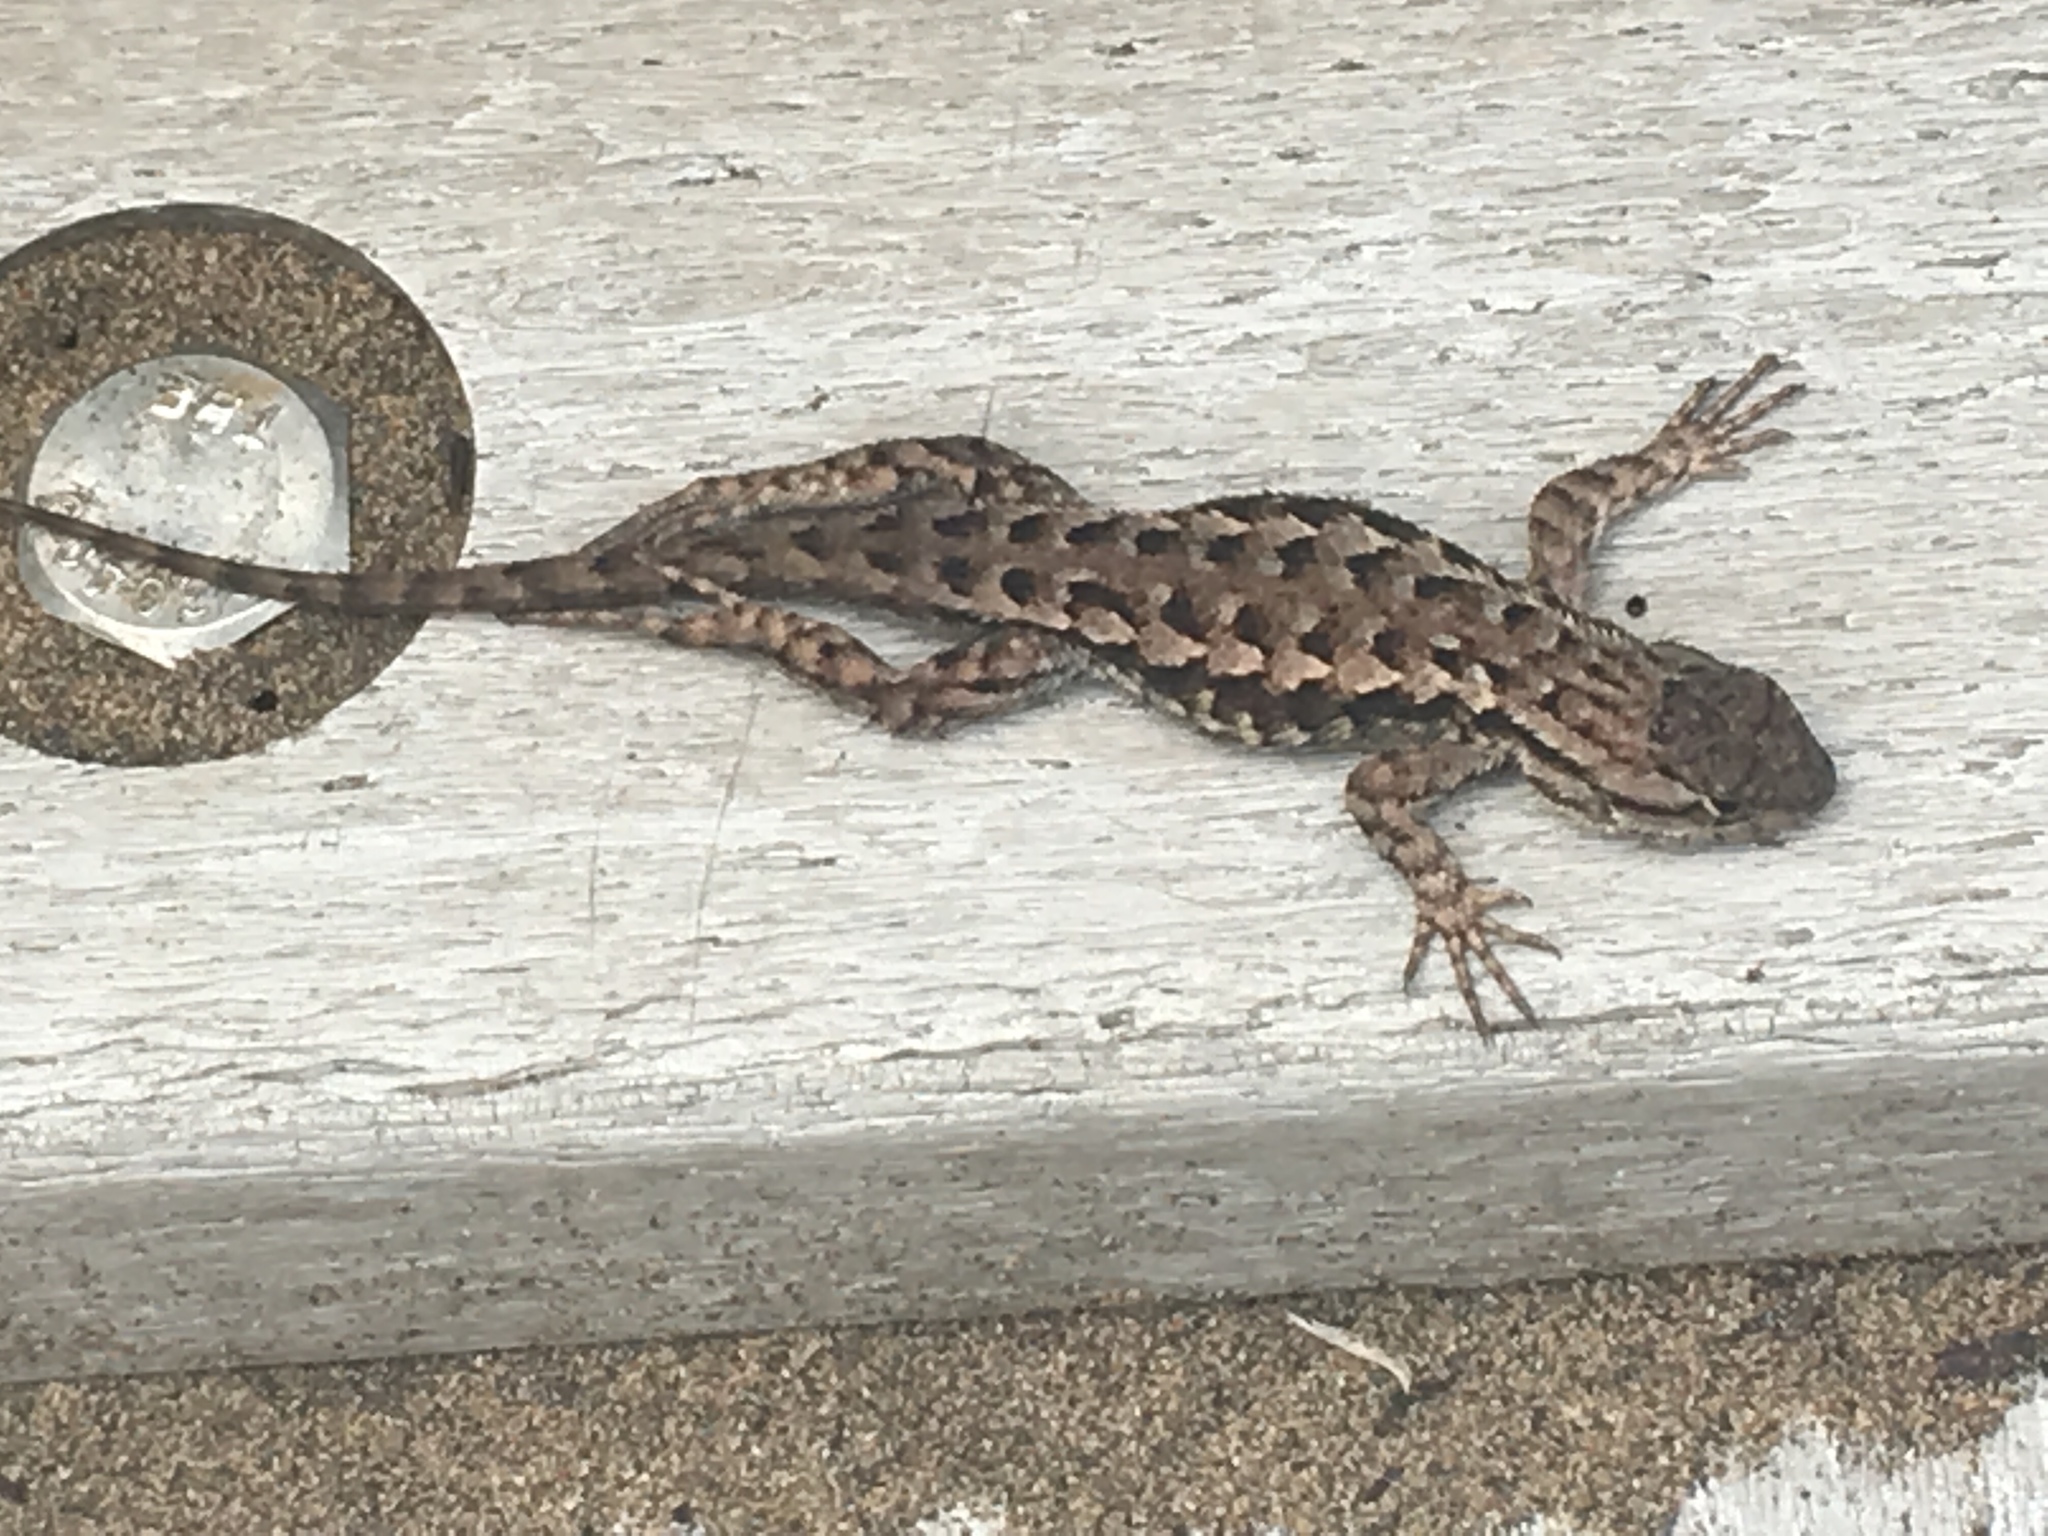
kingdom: Animalia
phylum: Chordata
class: Squamata
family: Phrynosomatidae
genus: Sceloporus
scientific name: Sceloporus occidentalis
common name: Western fence lizard
